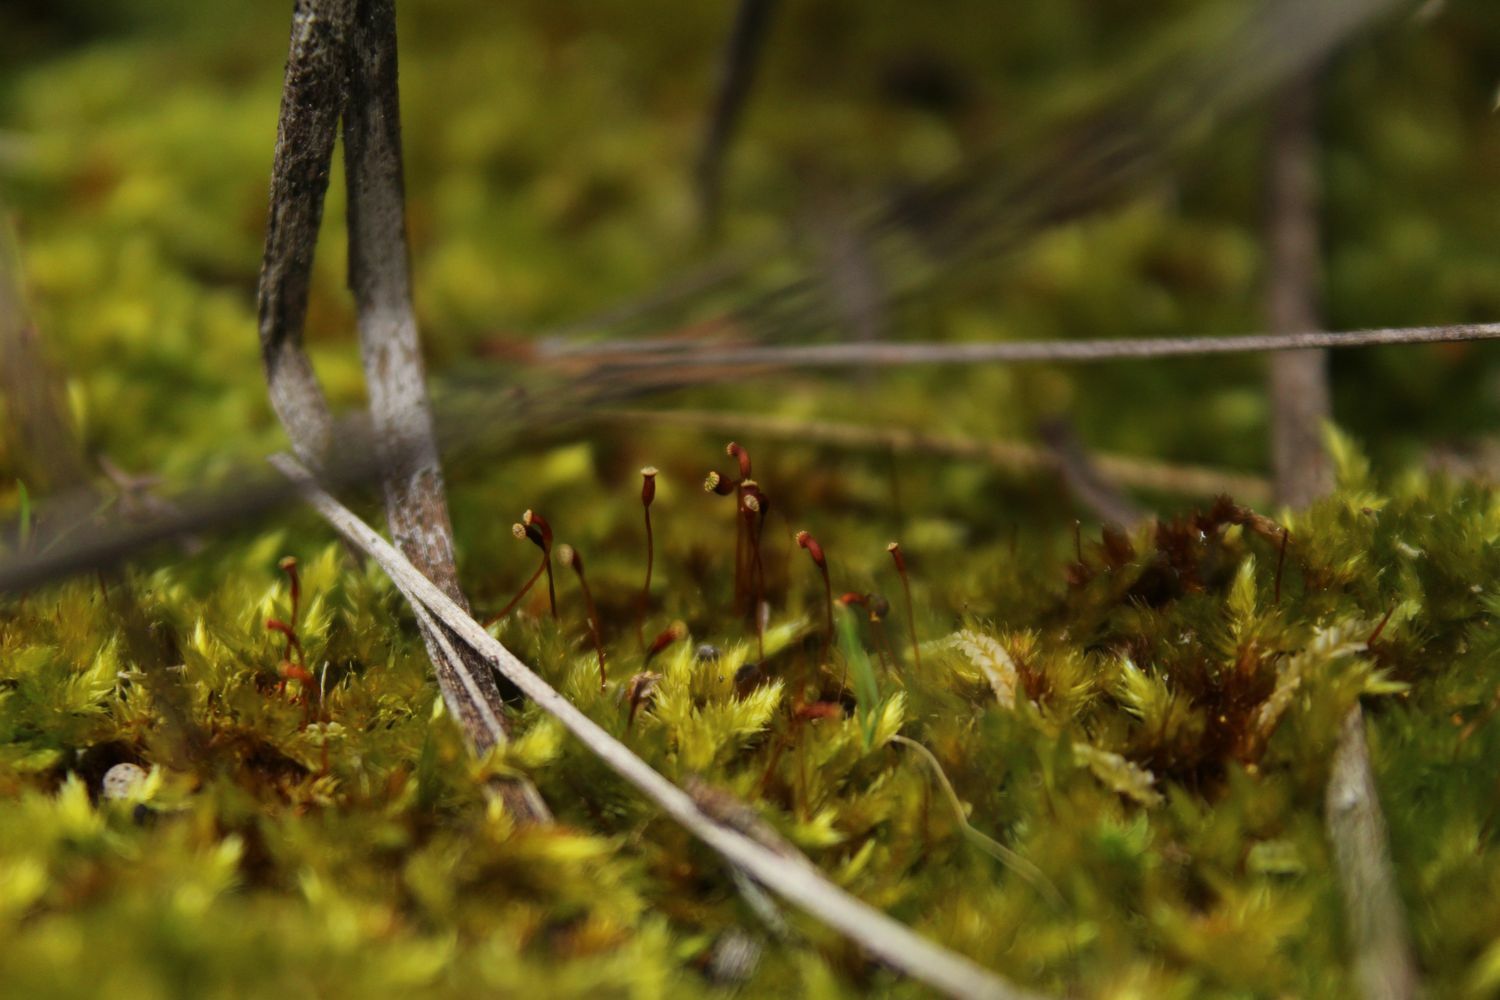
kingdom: Plantae
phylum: Bryophyta
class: Bryopsida
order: Hypnales
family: Sematophyllaceae
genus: Sematophyllum
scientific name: Sematophyllum homomallum
